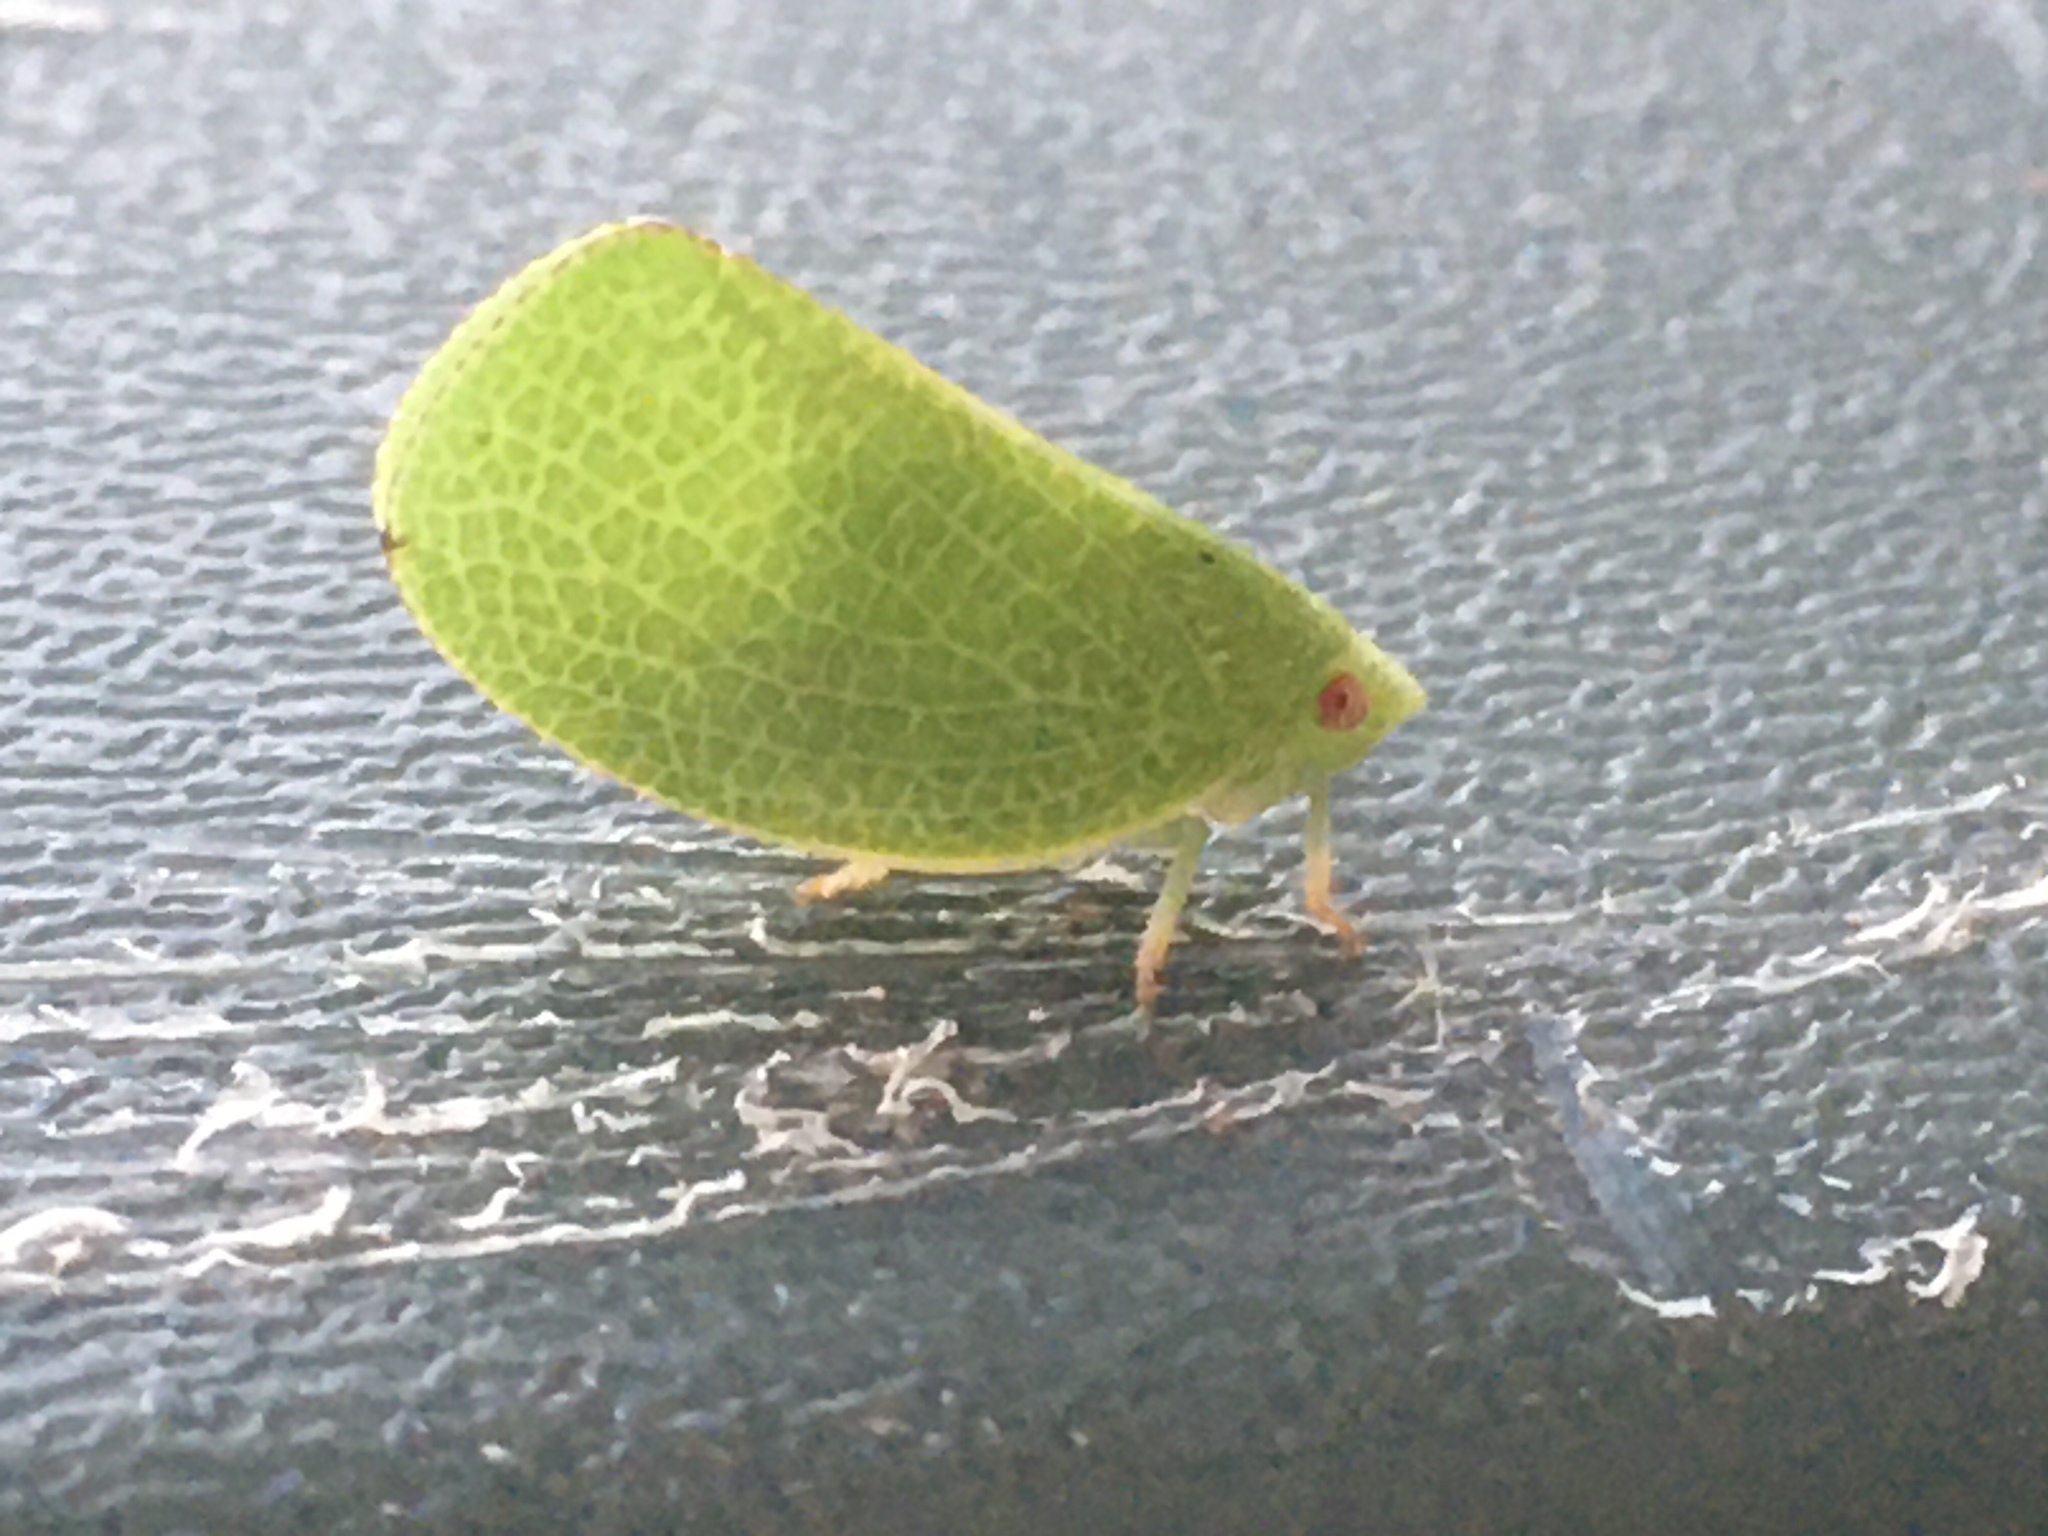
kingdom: Animalia
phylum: Arthropoda
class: Insecta
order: Hemiptera
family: Acanaloniidae
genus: Acanalonia
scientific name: Acanalonia conica
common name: Green cone-headed planthopper
